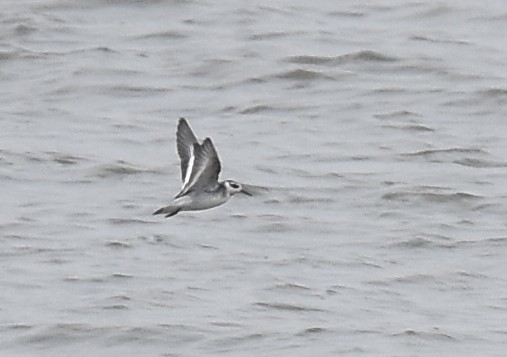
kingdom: Animalia
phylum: Chordata
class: Aves
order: Charadriiformes
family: Scolopacidae
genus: Phalaropus
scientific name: Phalaropus fulicarius
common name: Red phalarope
